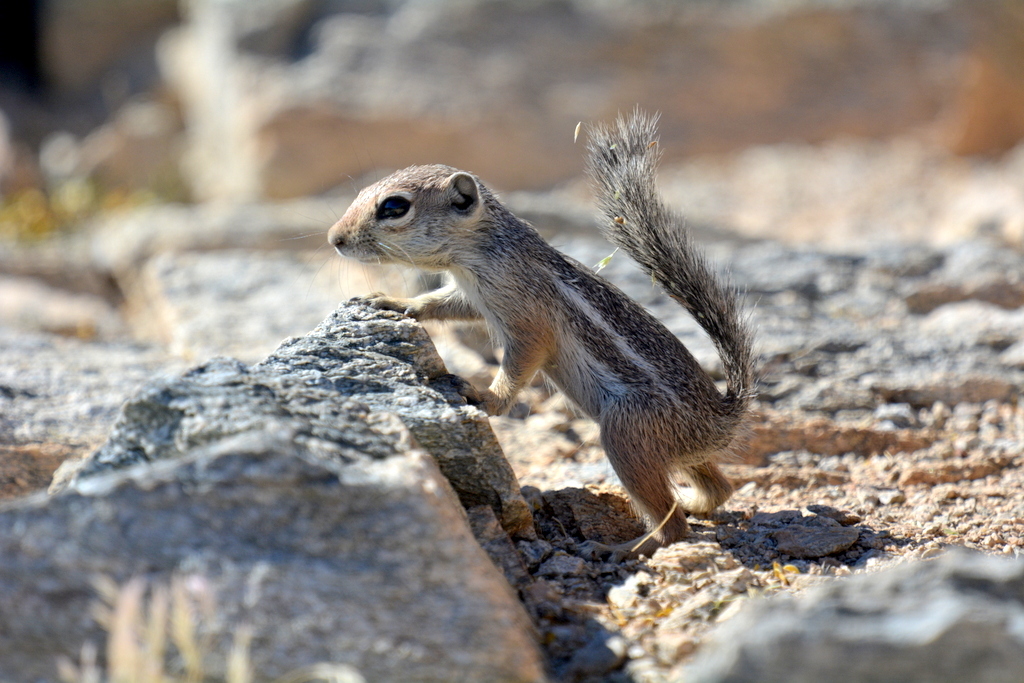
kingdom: Animalia
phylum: Chordata
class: Mammalia
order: Rodentia
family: Sciuridae
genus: Ammospermophilus
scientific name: Ammospermophilus harrisii
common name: Harris's antelope squirrel
